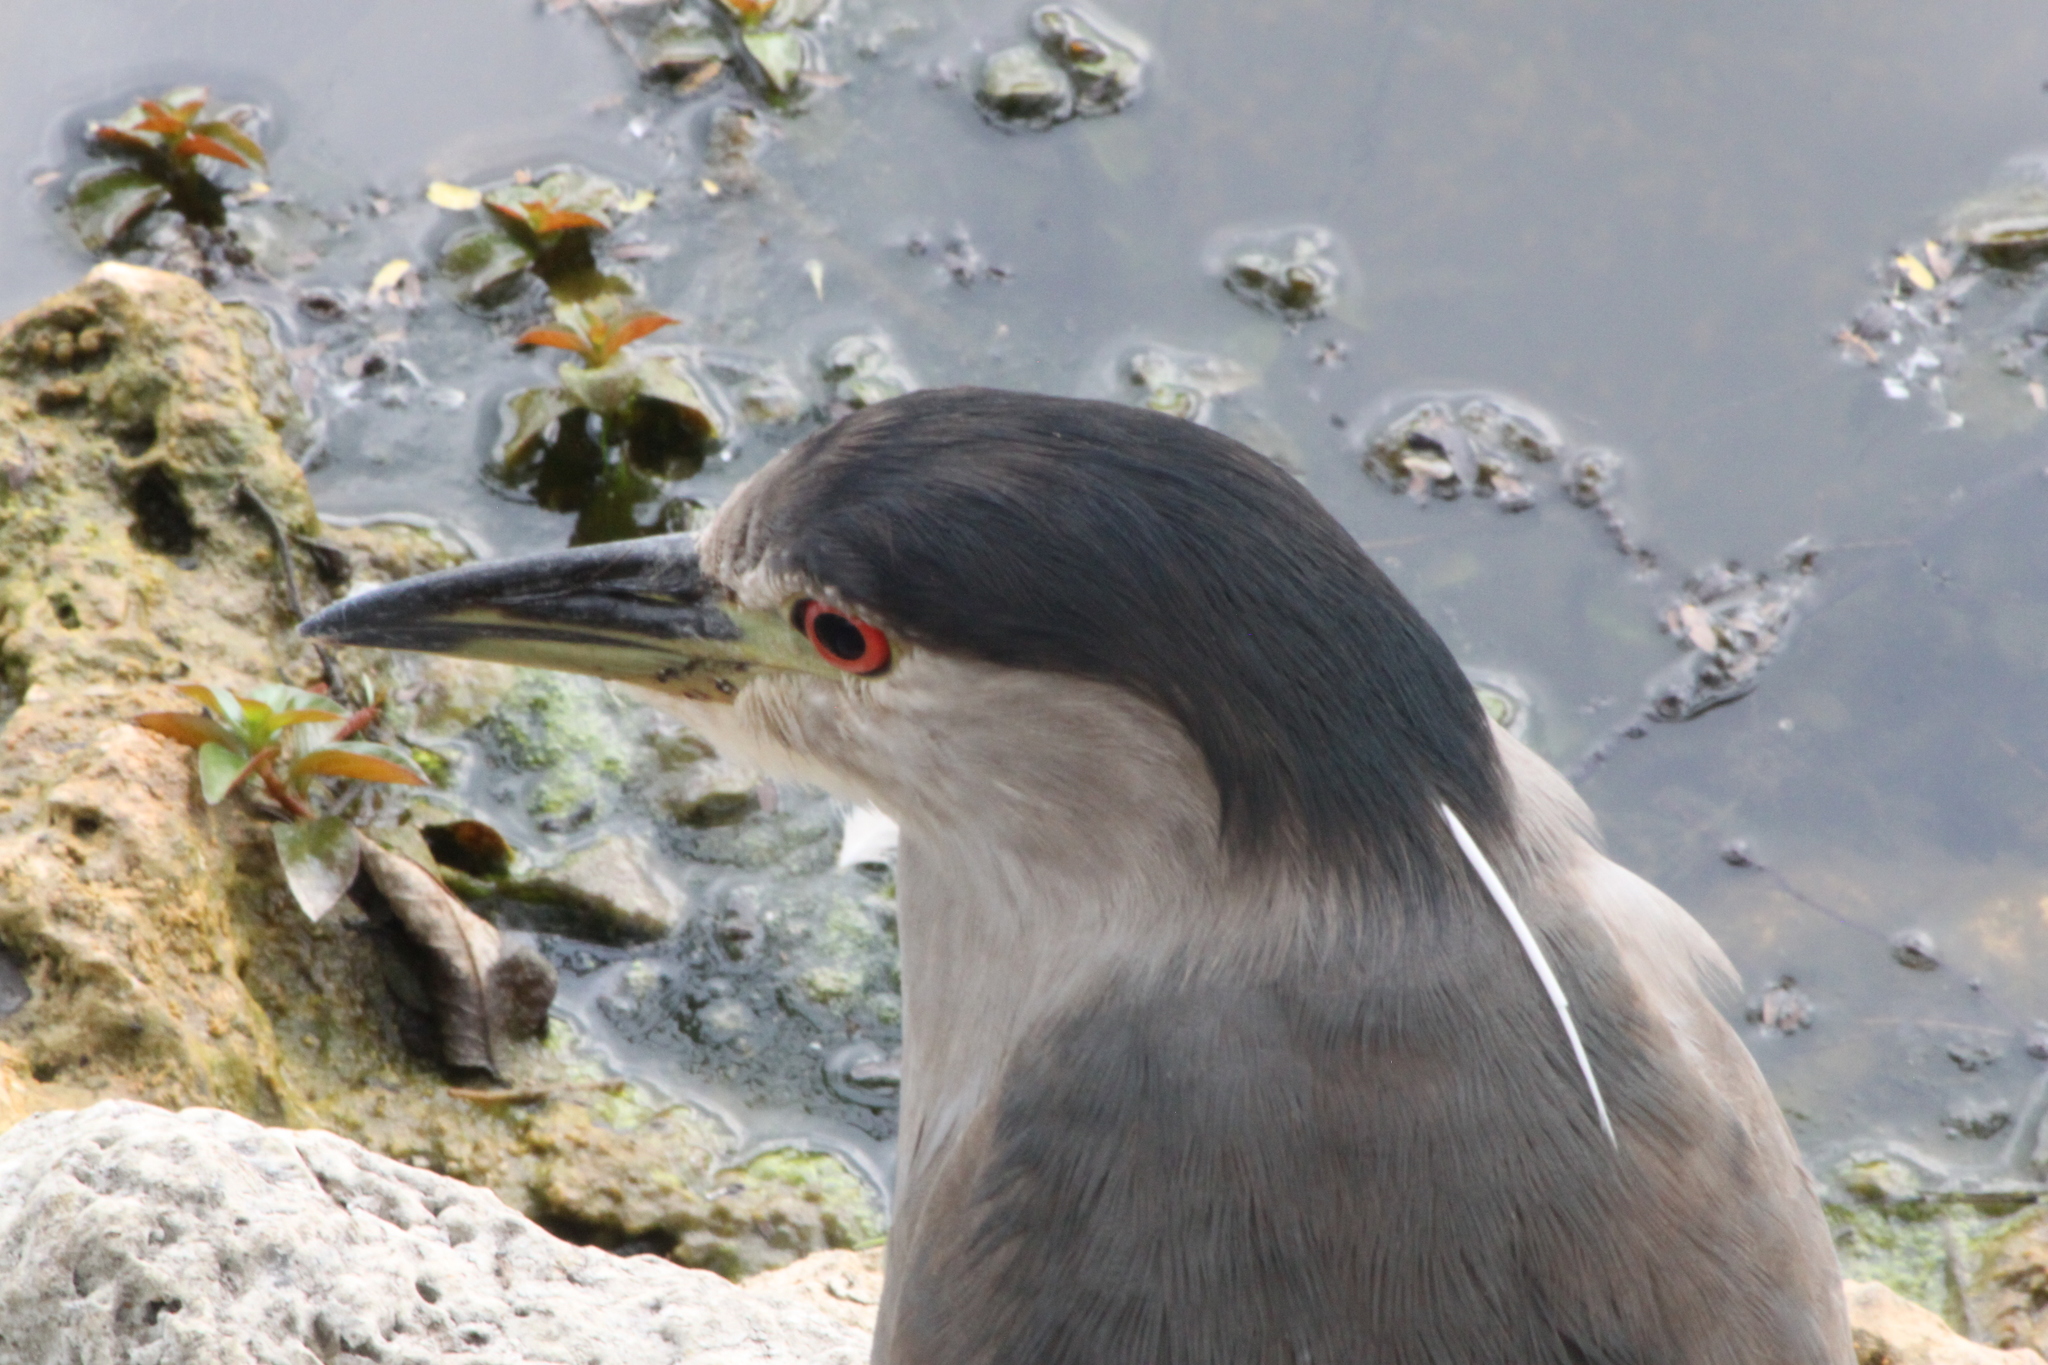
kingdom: Animalia
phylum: Chordata
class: Aves
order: Pelecaniformes
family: Ardeidae
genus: Nycticorax
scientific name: Nycticorax nycticorax
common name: Black-crowned night heron
